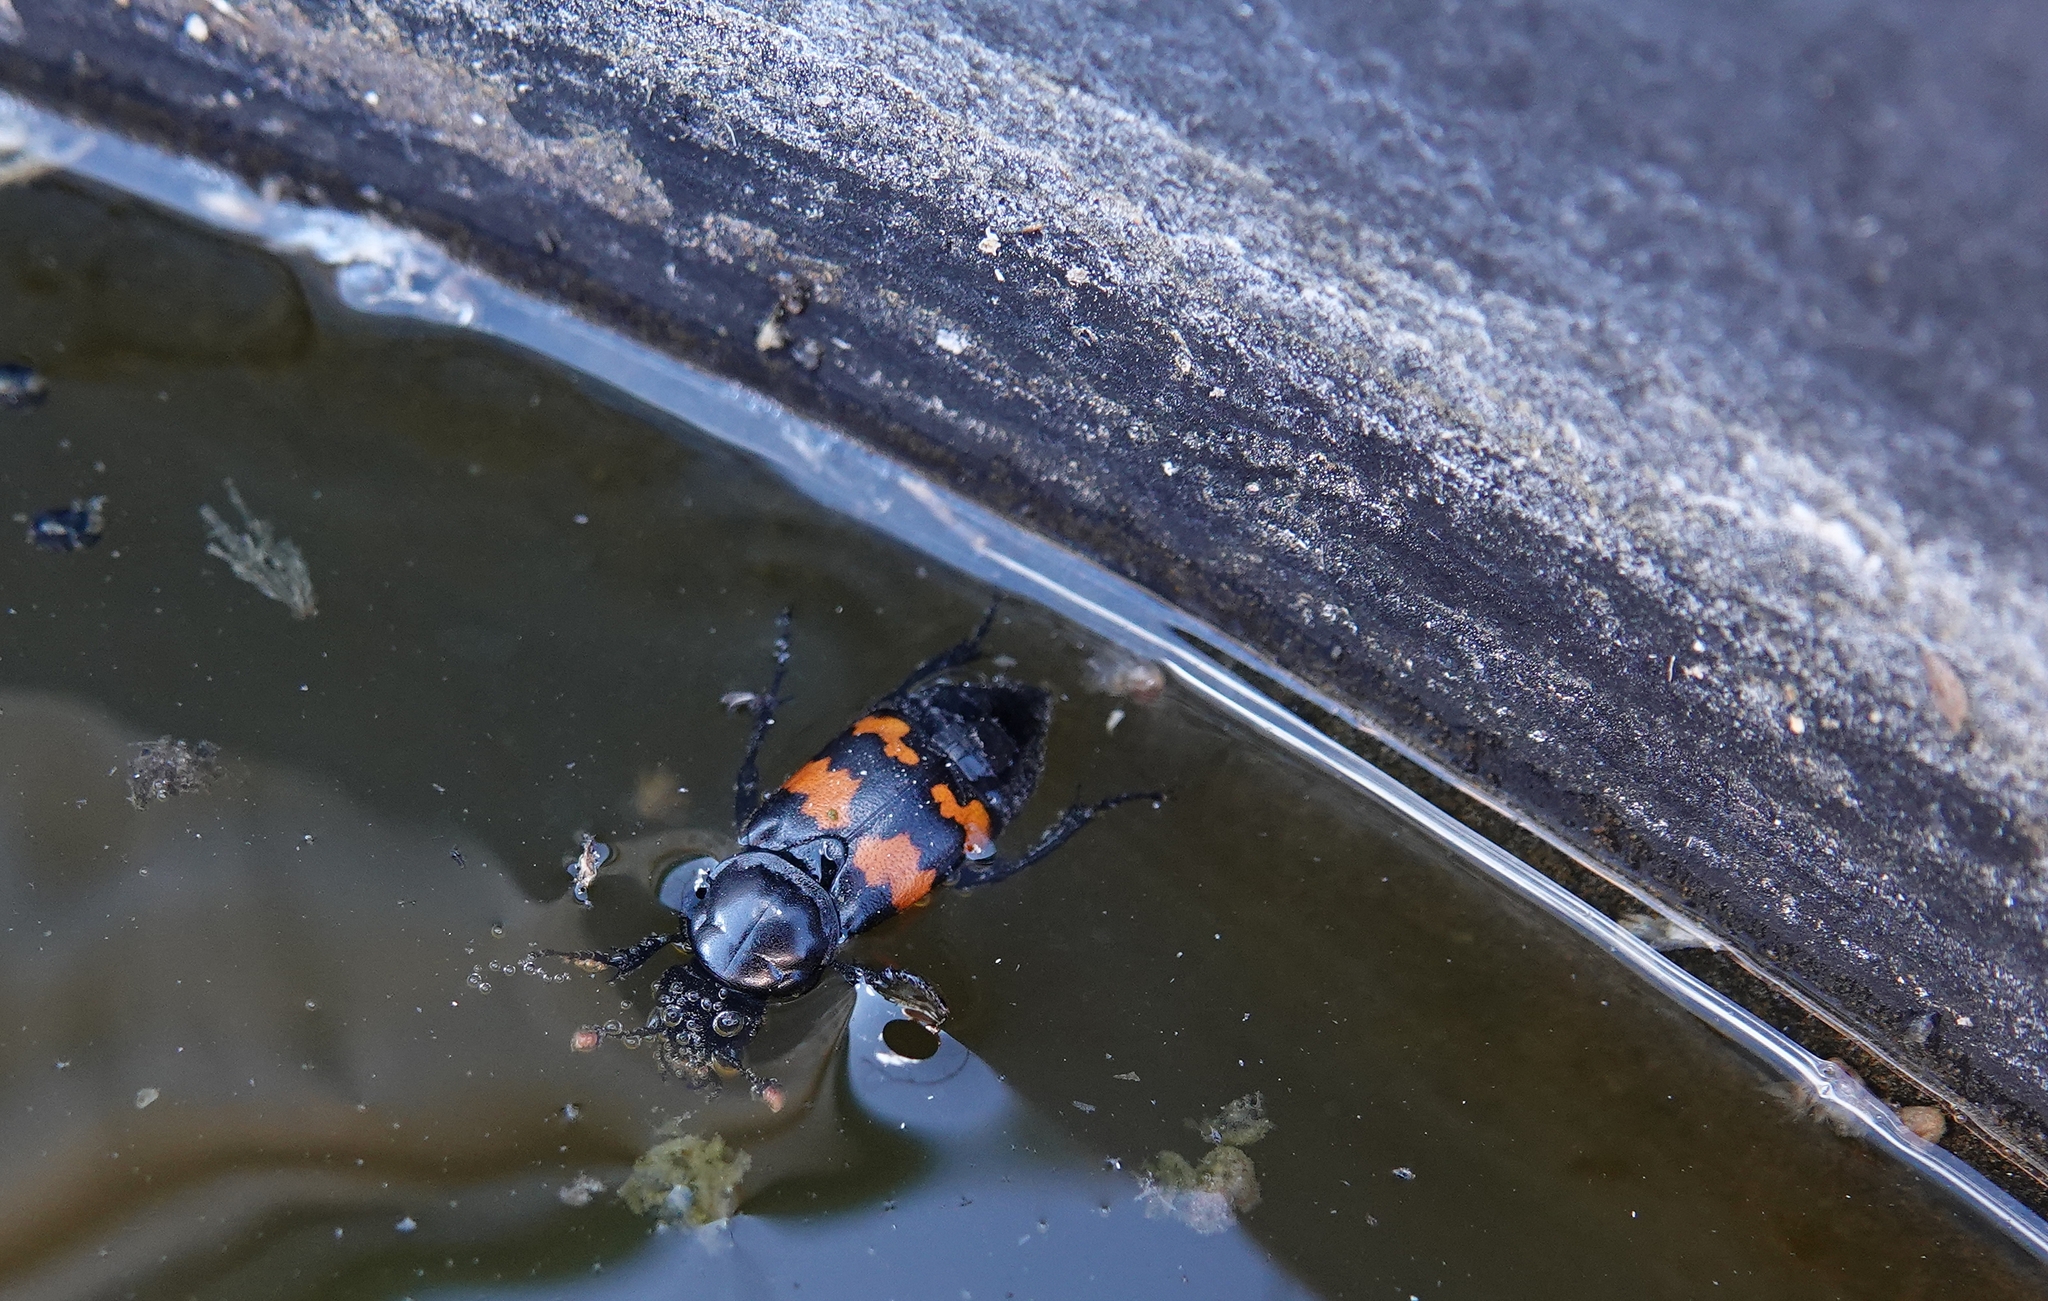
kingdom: Animalia
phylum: Arthropoda
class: Insecta
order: Coleoptera
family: Staphylinidae
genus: Nicrophorus
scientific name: Nicrophorus obscurus
